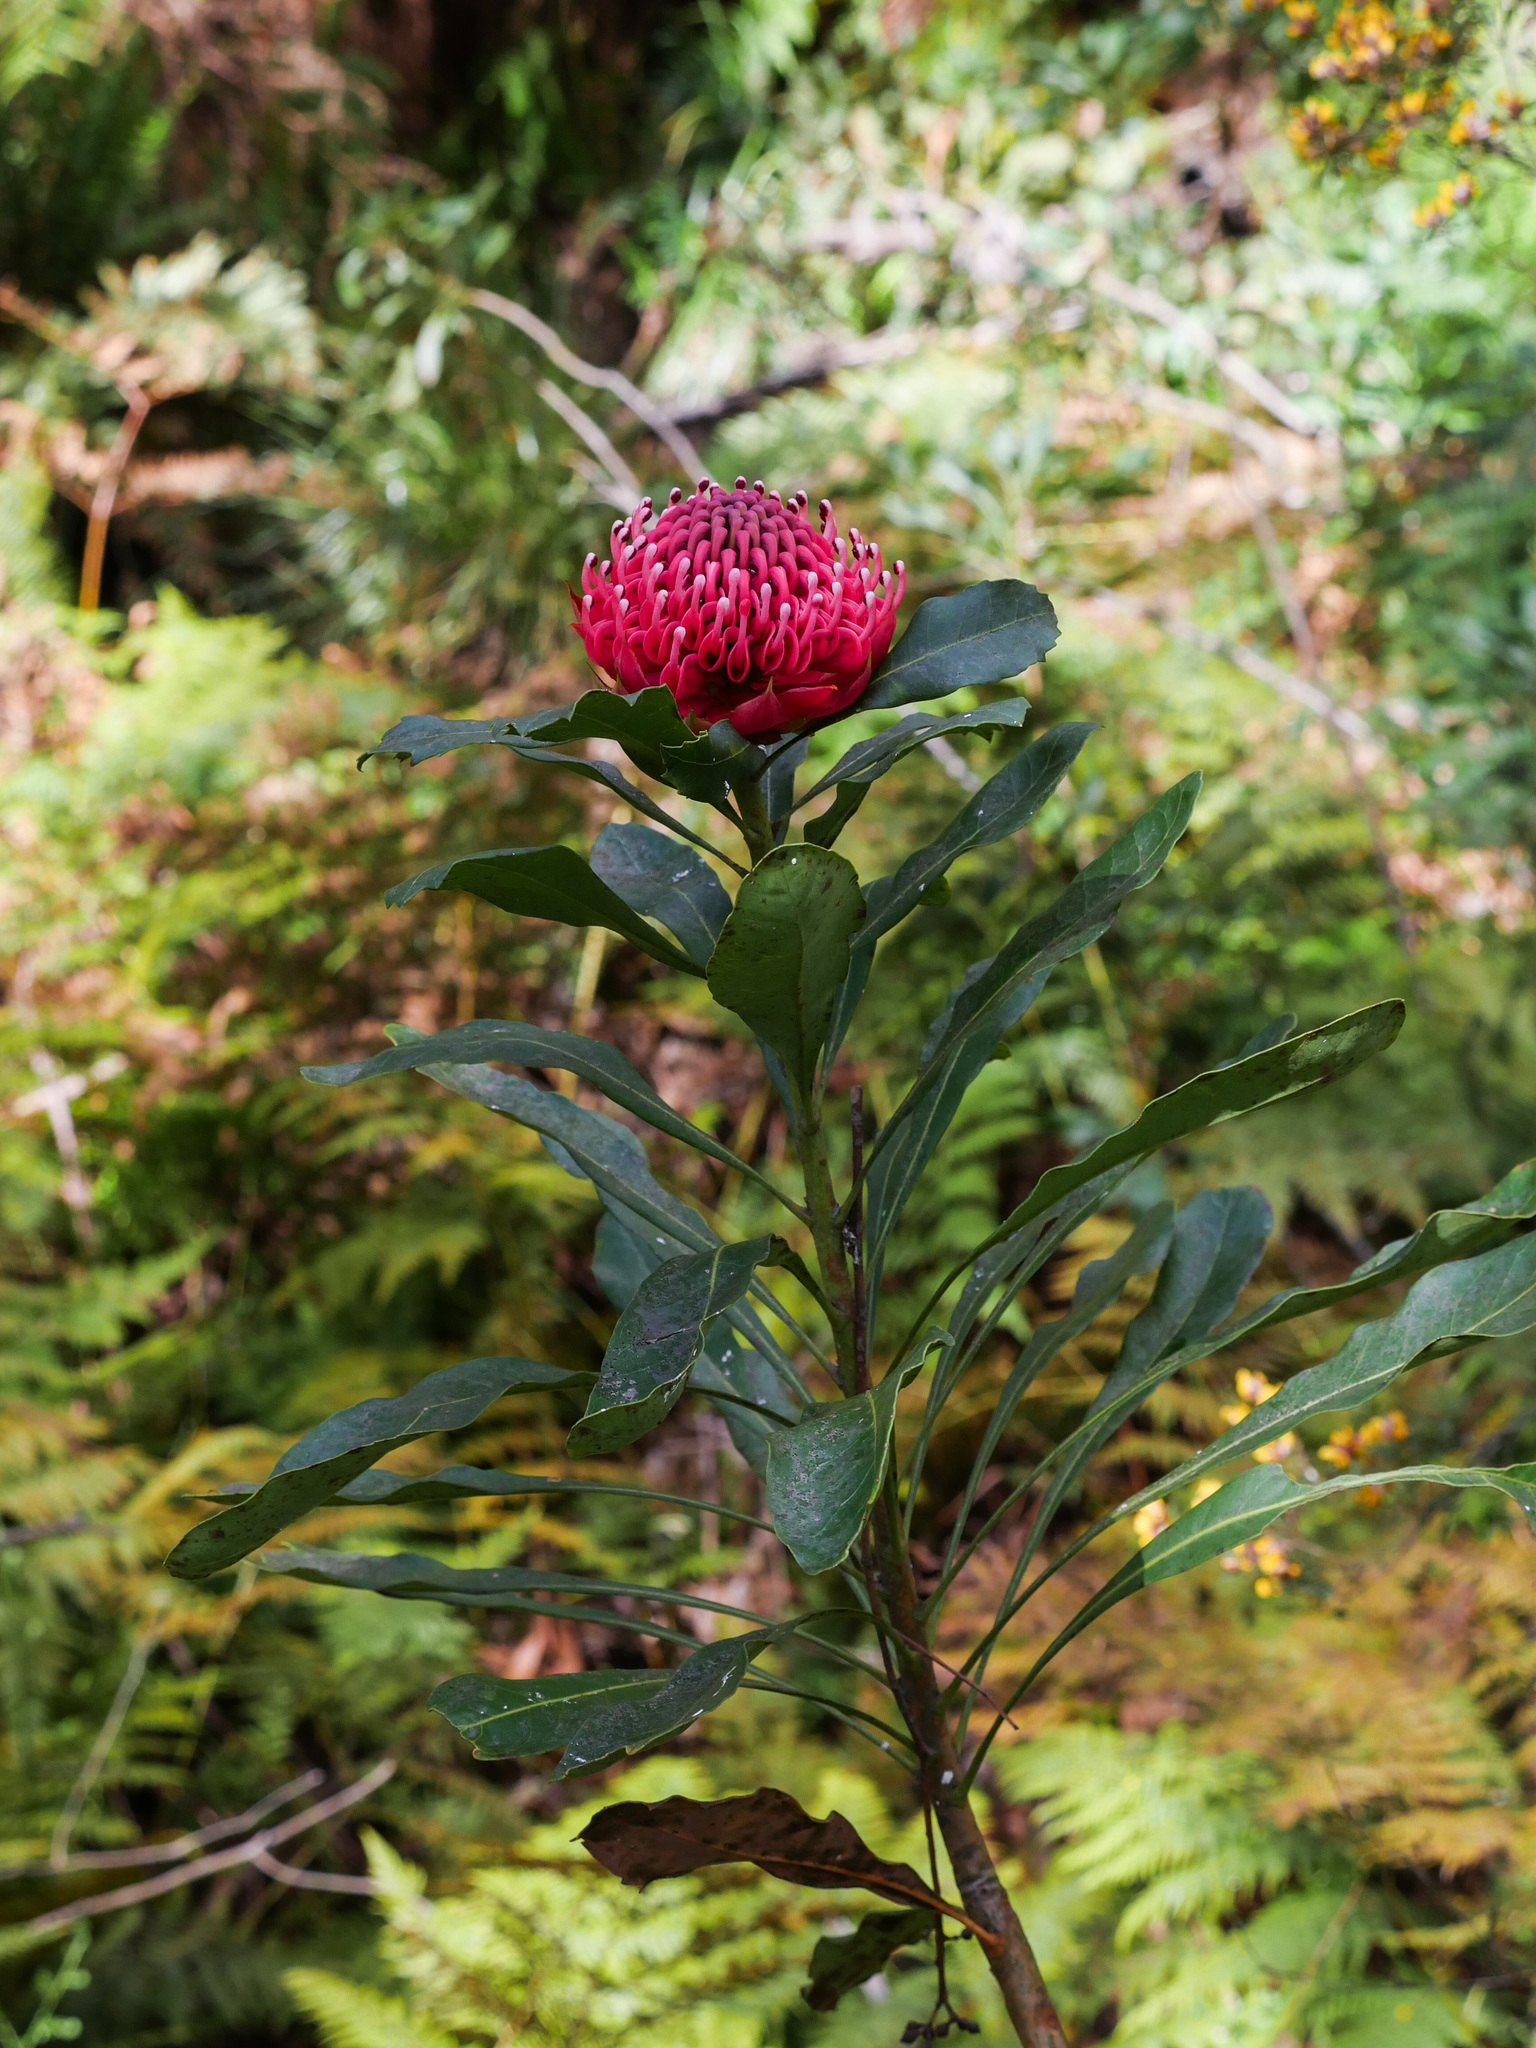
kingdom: Plantae
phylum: Tracheophyta
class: Magnoliopsida
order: Proteales
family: Proteaceae
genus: Telopea
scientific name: Telopea speciosissima
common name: New south wales waratah
